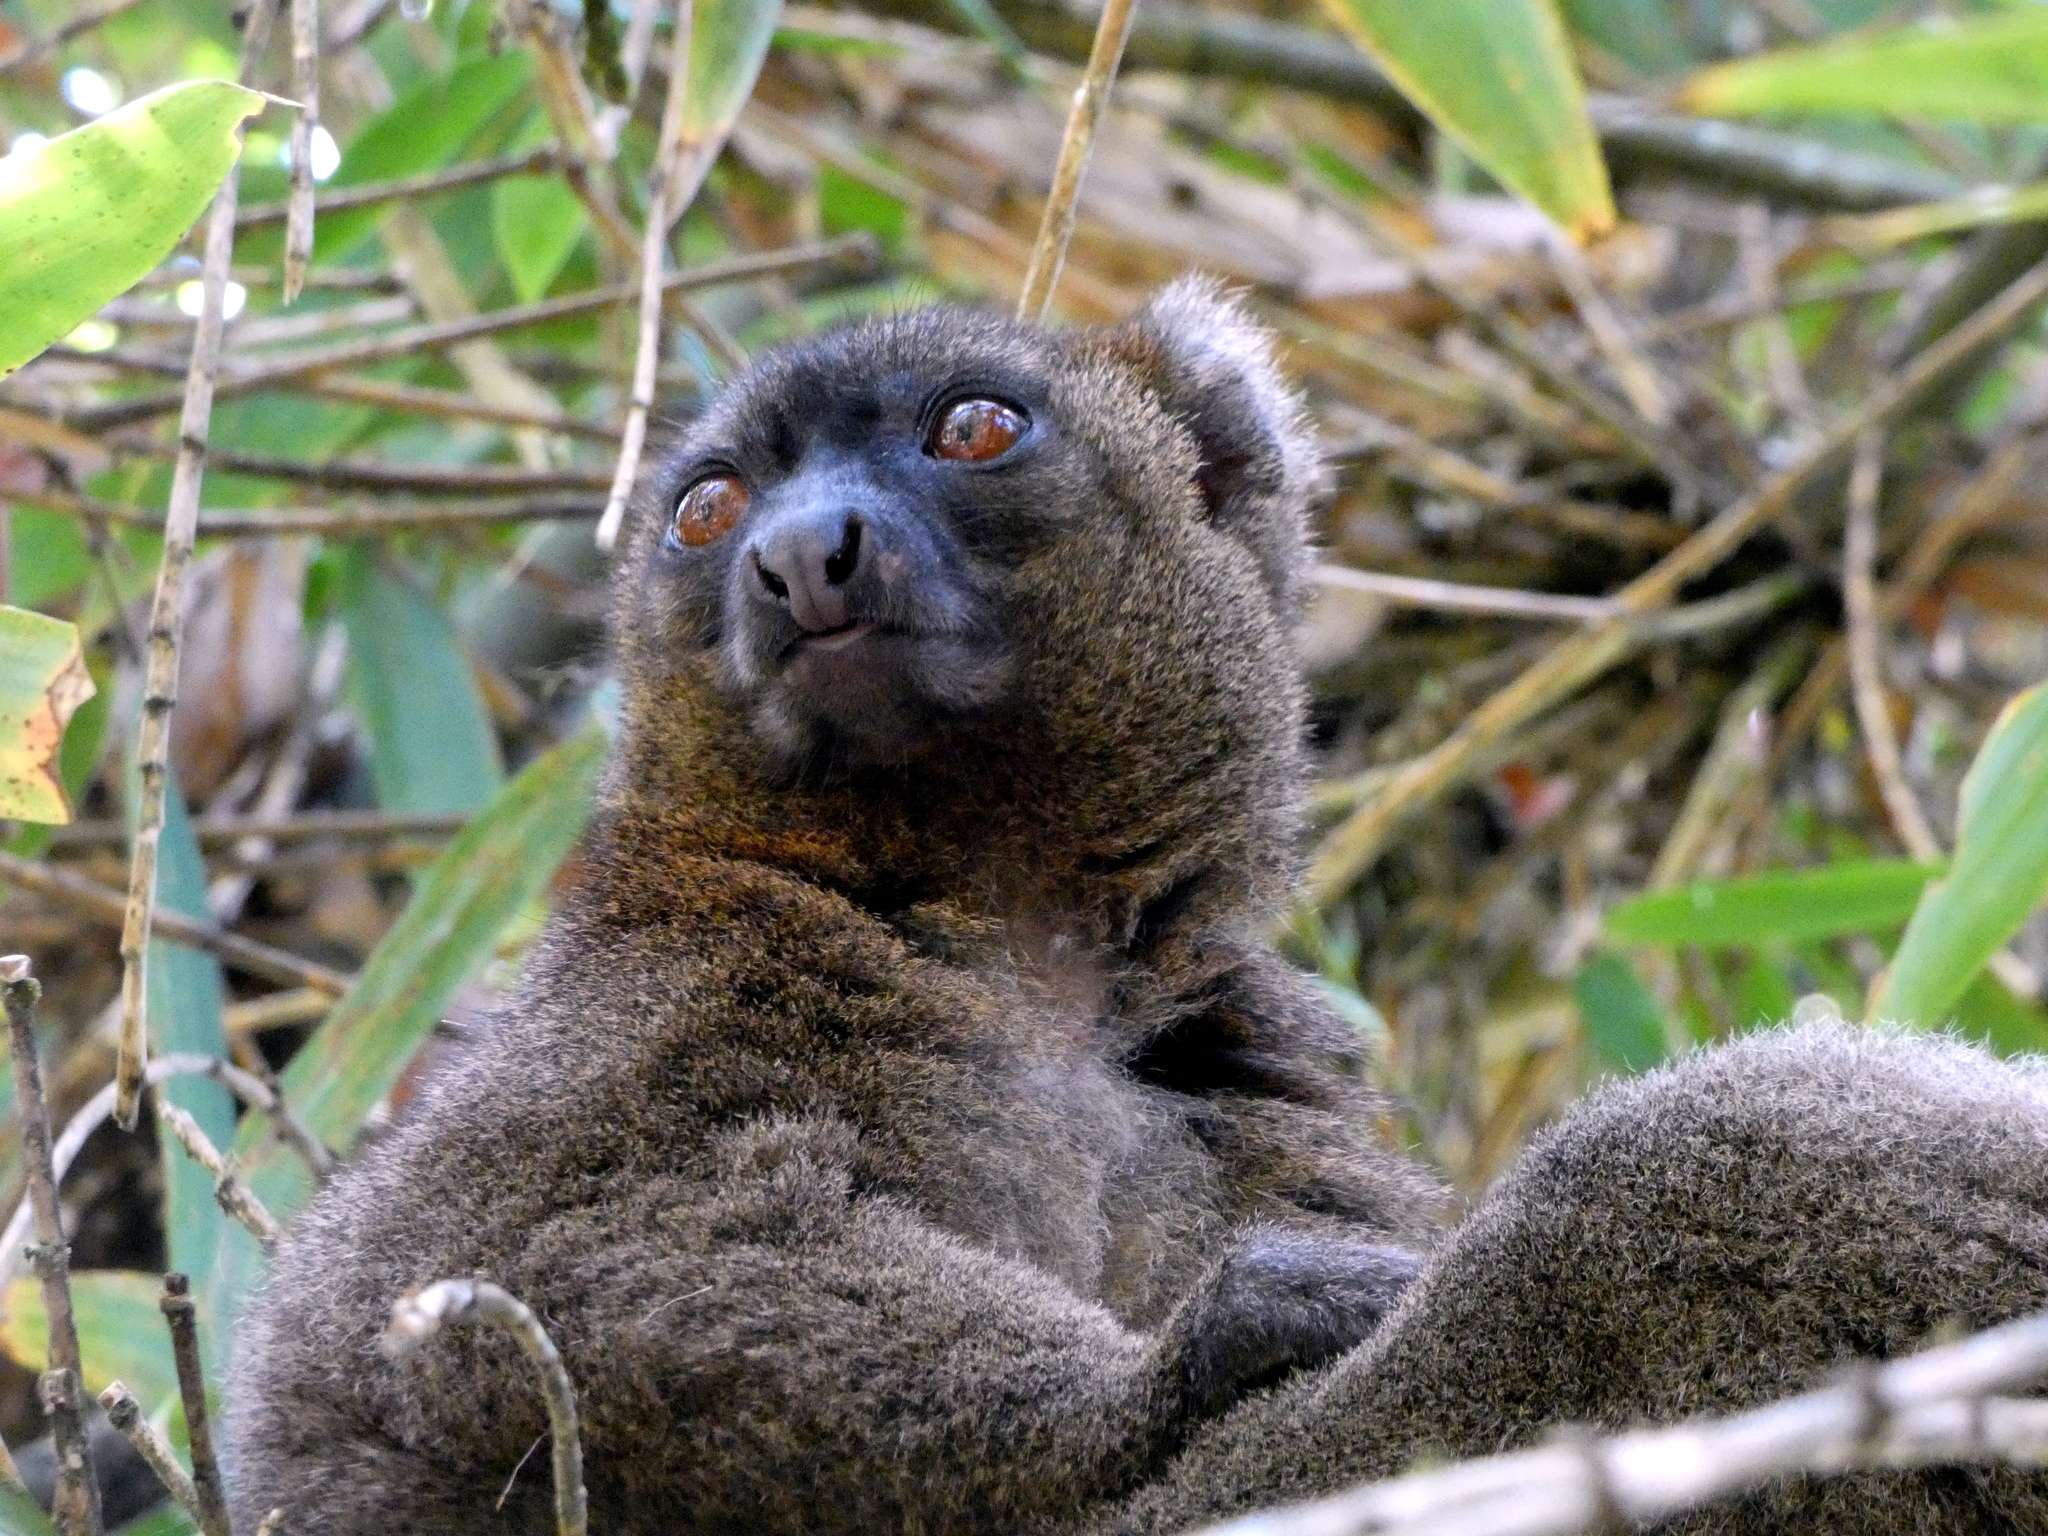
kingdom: Animalia
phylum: Chordata
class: Mammalia
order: Primates
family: Lemuridae
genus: Prolemur
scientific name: Prolemur simus
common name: Greater bamboo lemur
